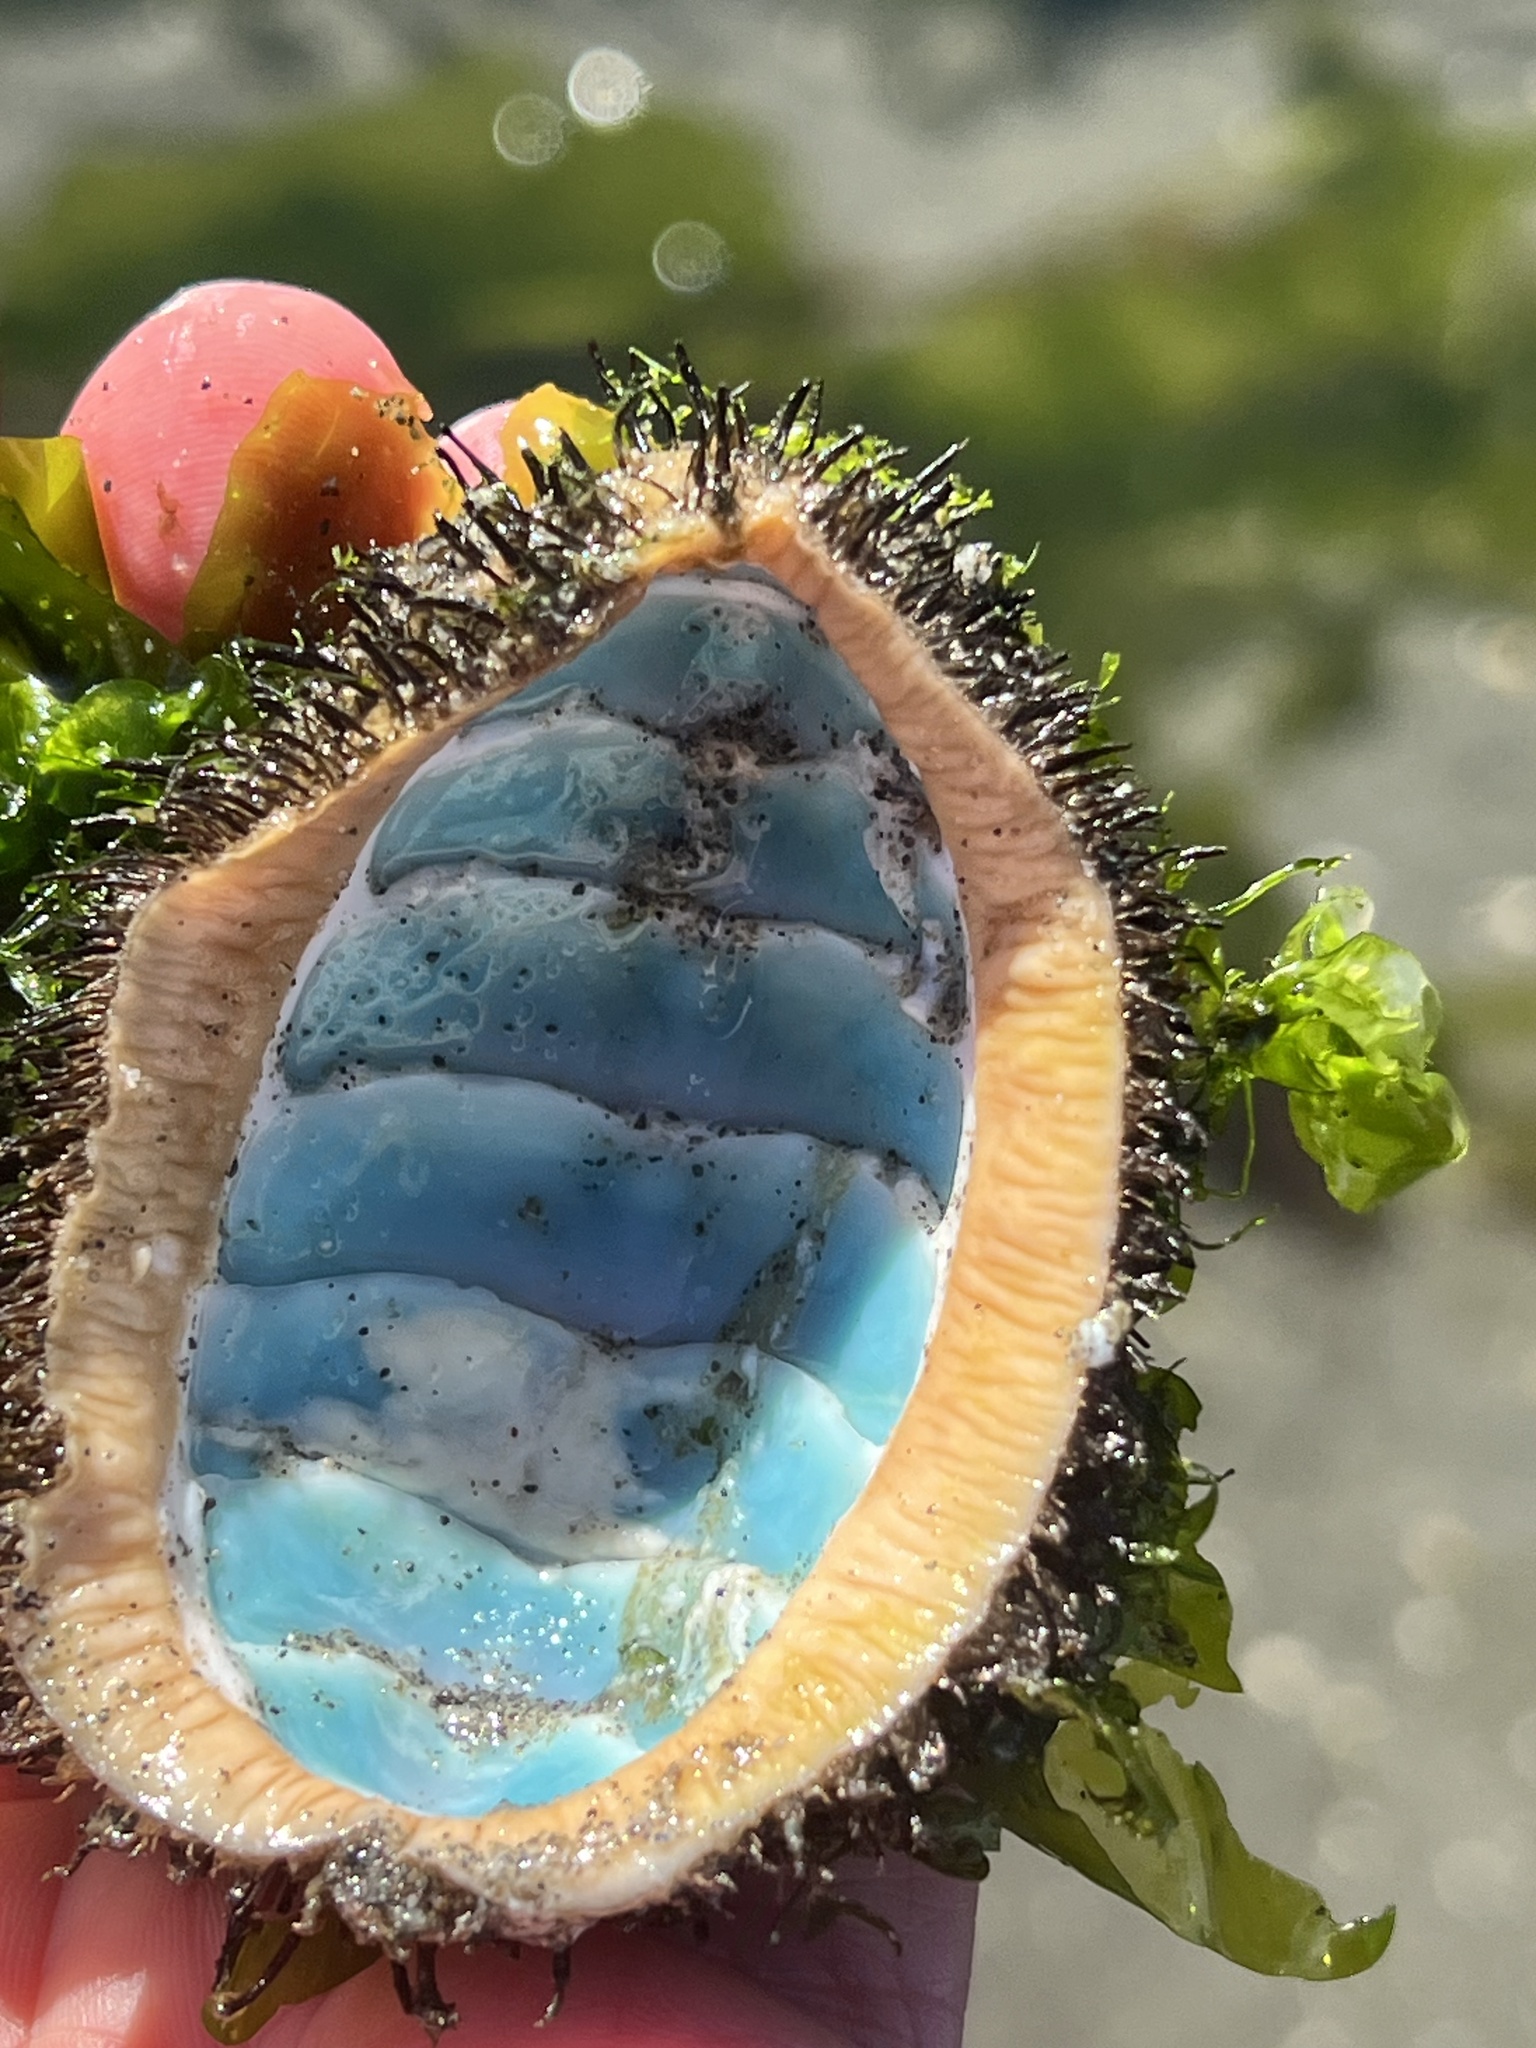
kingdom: Animalia
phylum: Mollusca
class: Polyplacophora
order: Chitonida
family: Mopaliidae
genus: Mopalia
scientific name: Mopalia muscosa
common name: Mossy chiton
